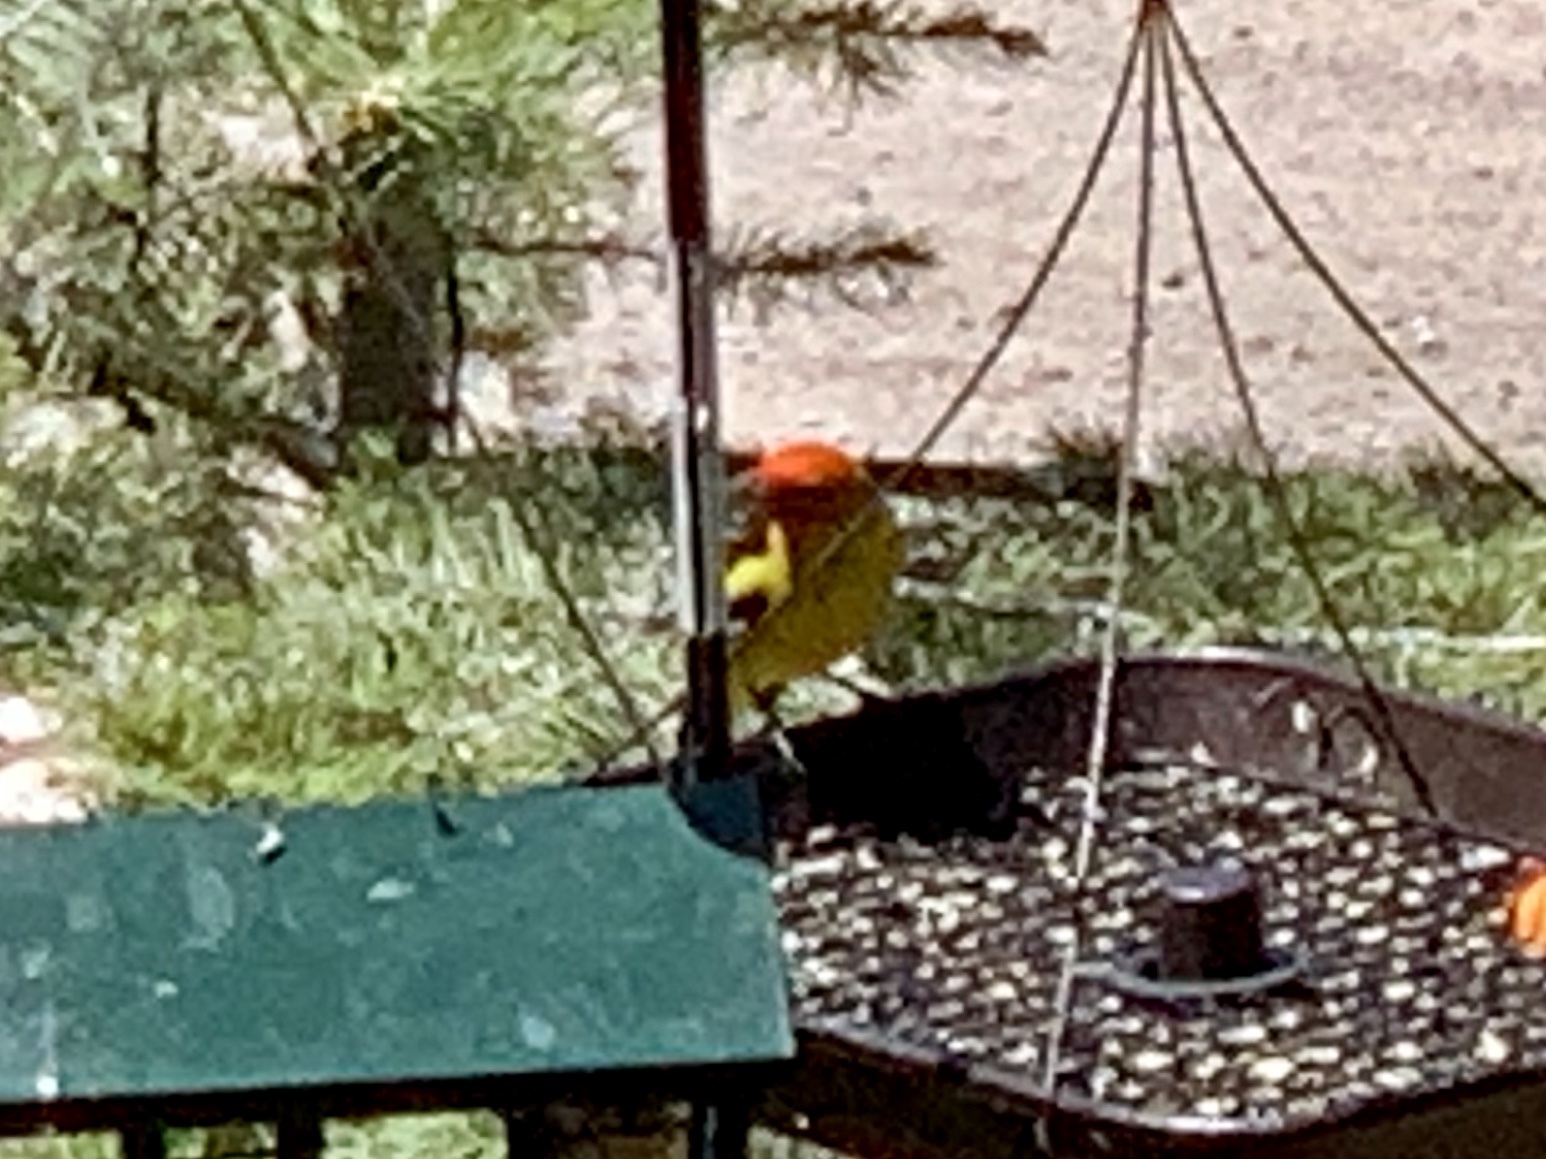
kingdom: Animalia
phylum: Chordata
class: Aves
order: Passeriformes
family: Cardinalidae
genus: Piranga
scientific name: Piranga ludoviciana
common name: Western tanager
